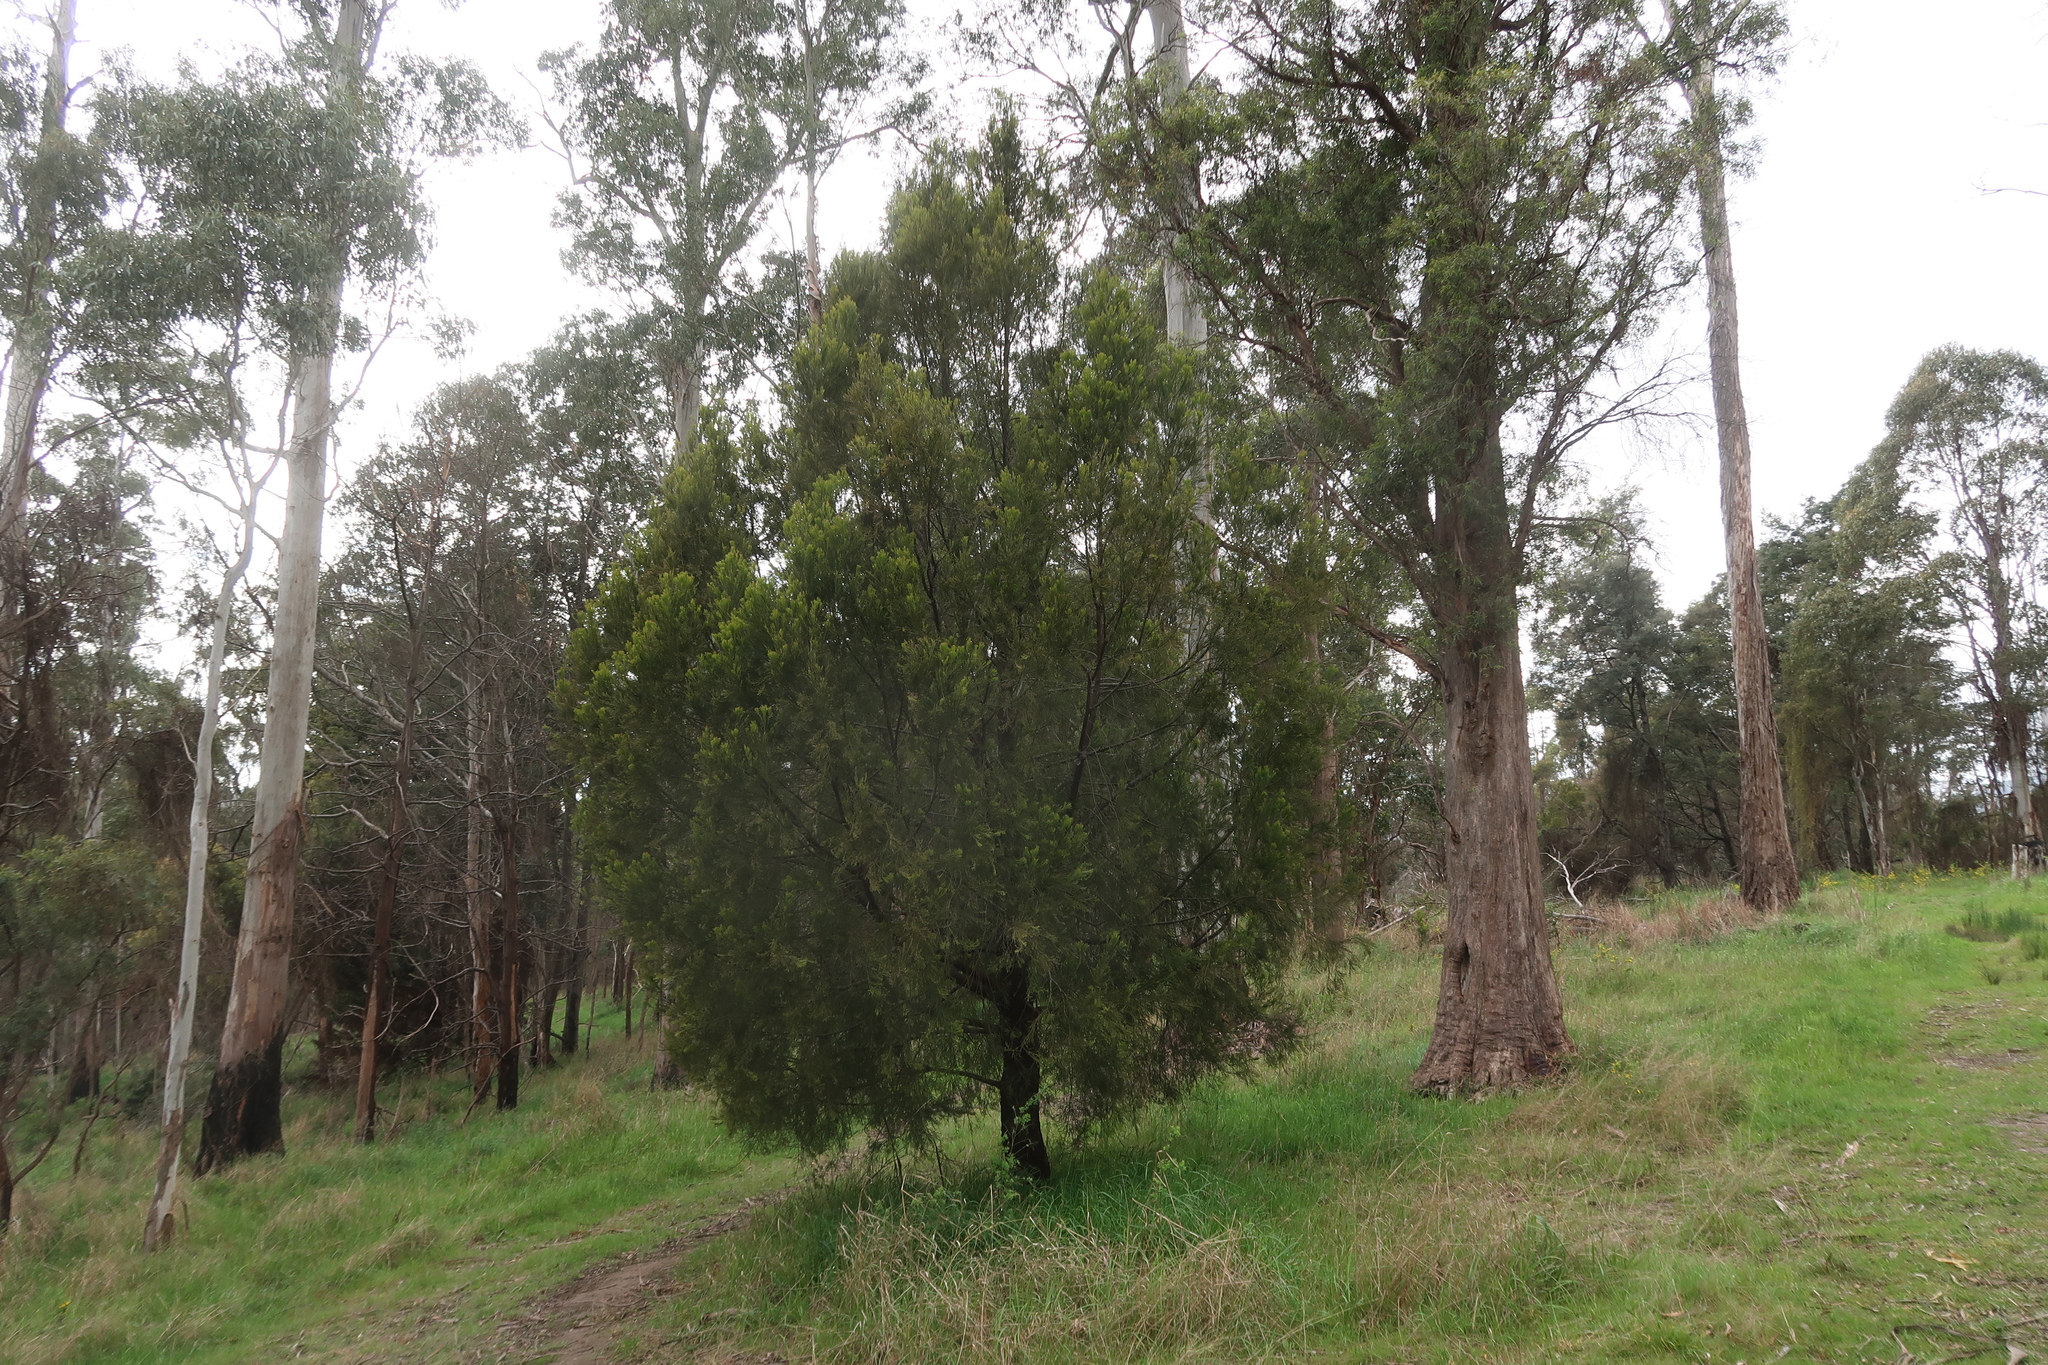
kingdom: Plantae
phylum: Tracheophyta
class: Magnoliopsida
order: Santalales
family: Santalaceae
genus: Exocarpos
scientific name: Exocarpos cupressiformis
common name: Cherry ballart
